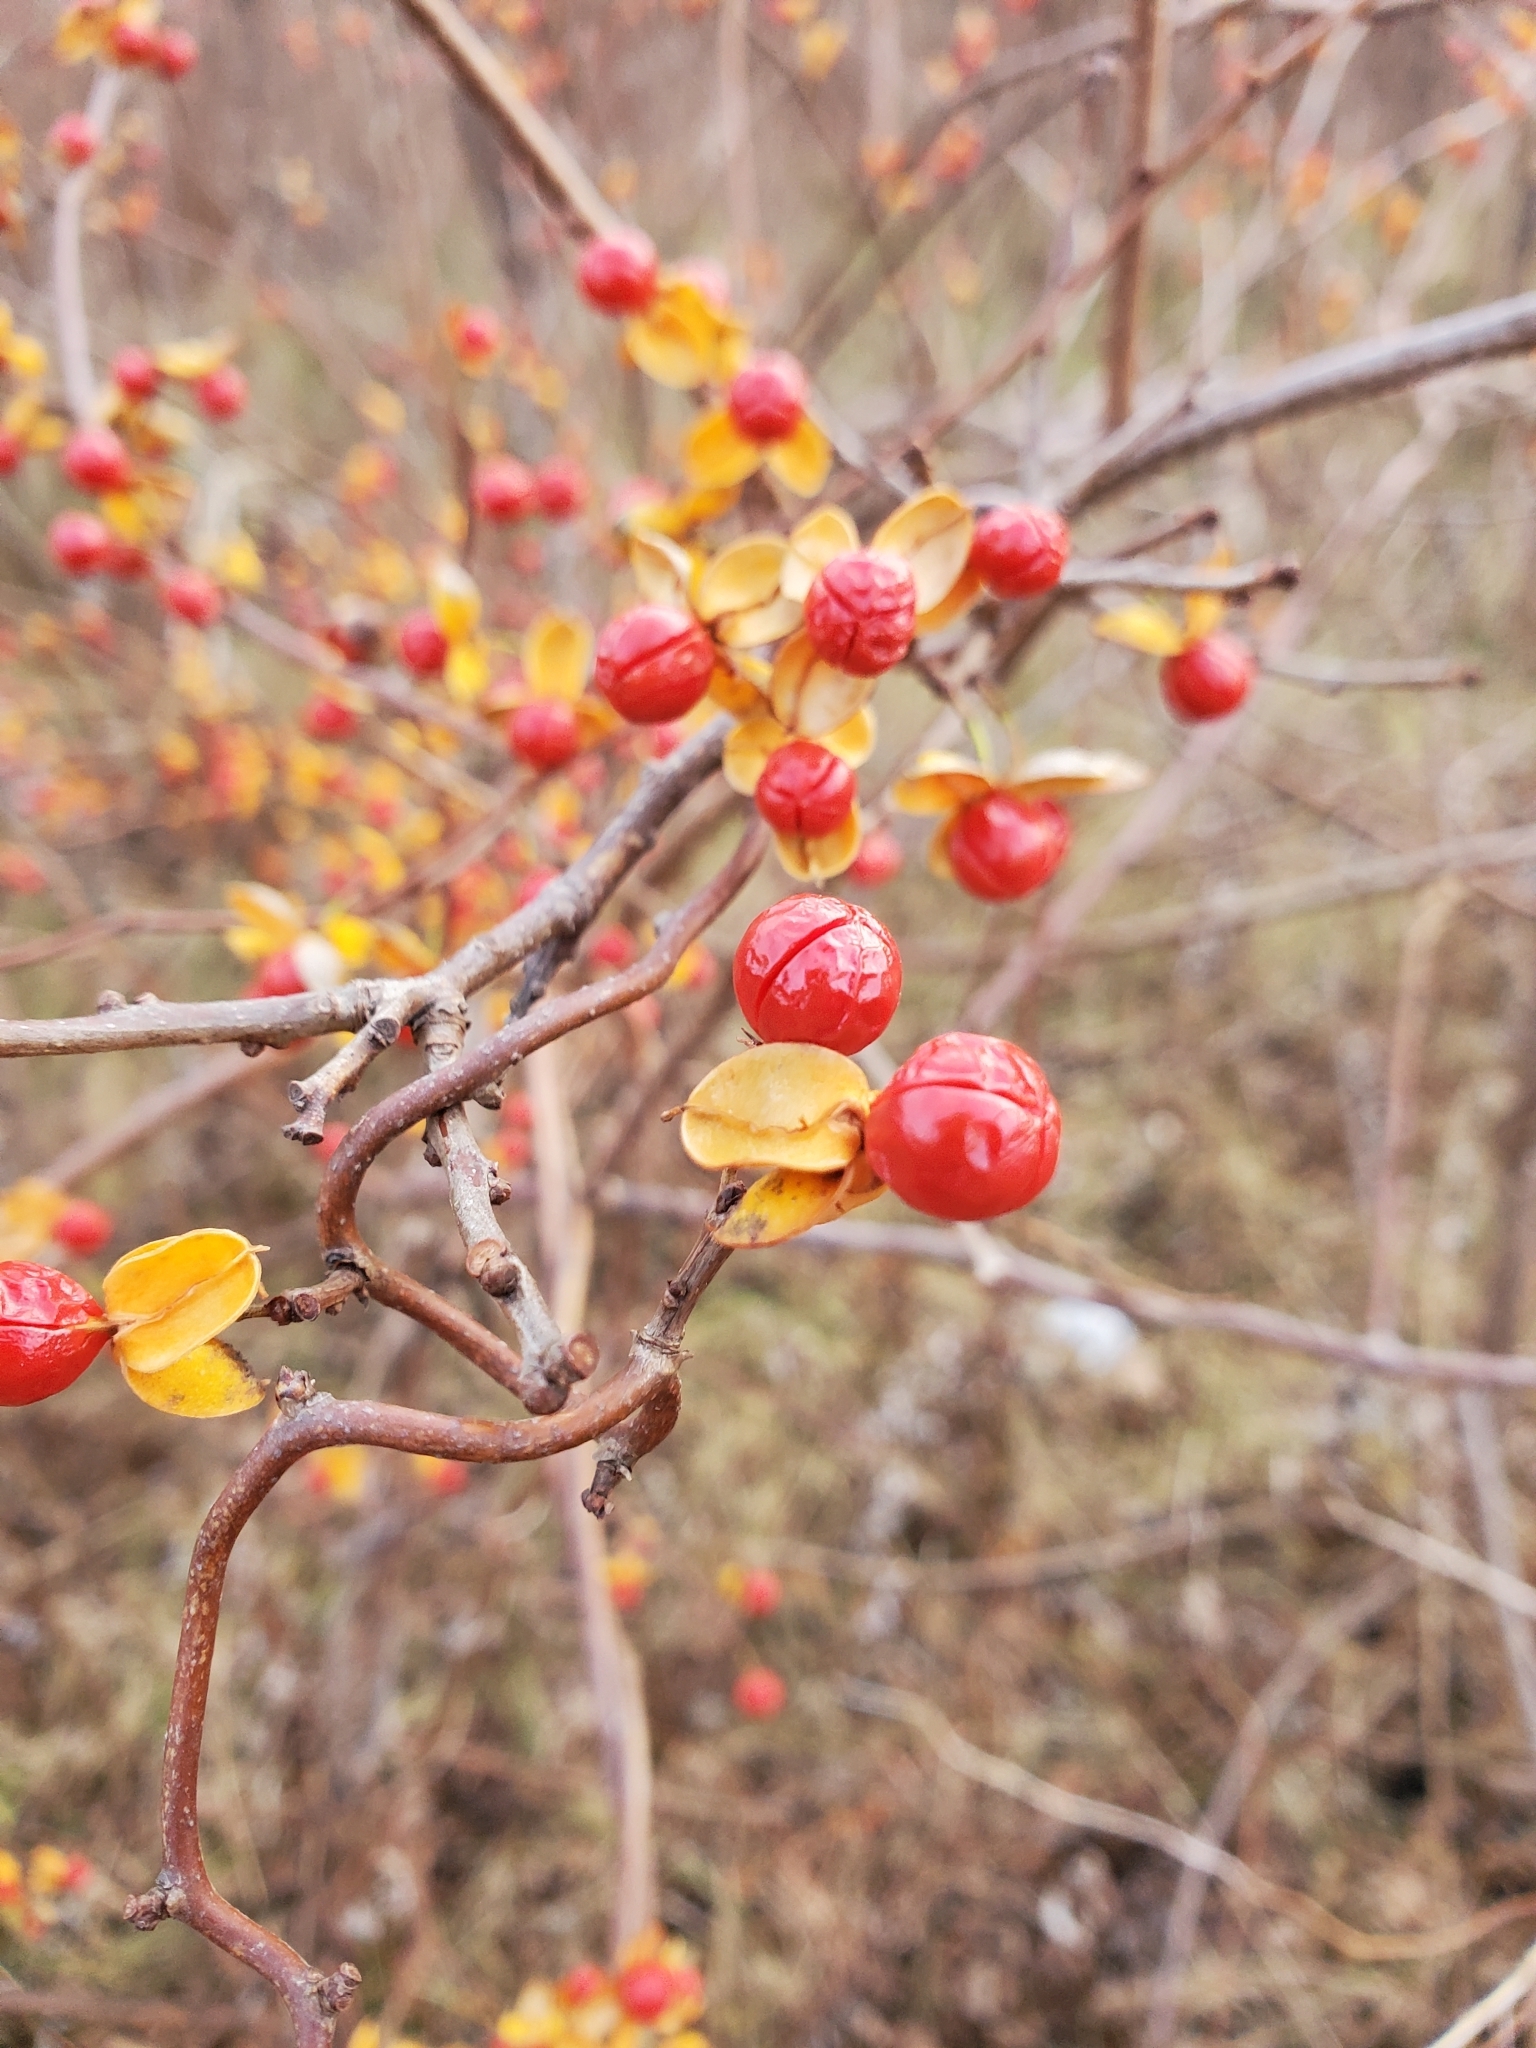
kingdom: Plantae
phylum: Tracheophyta
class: Magnoliopsida
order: Celastrales
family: Celastraceae
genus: Celastrus
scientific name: Celastrus orbiculatus
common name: Oriental bittersweet
